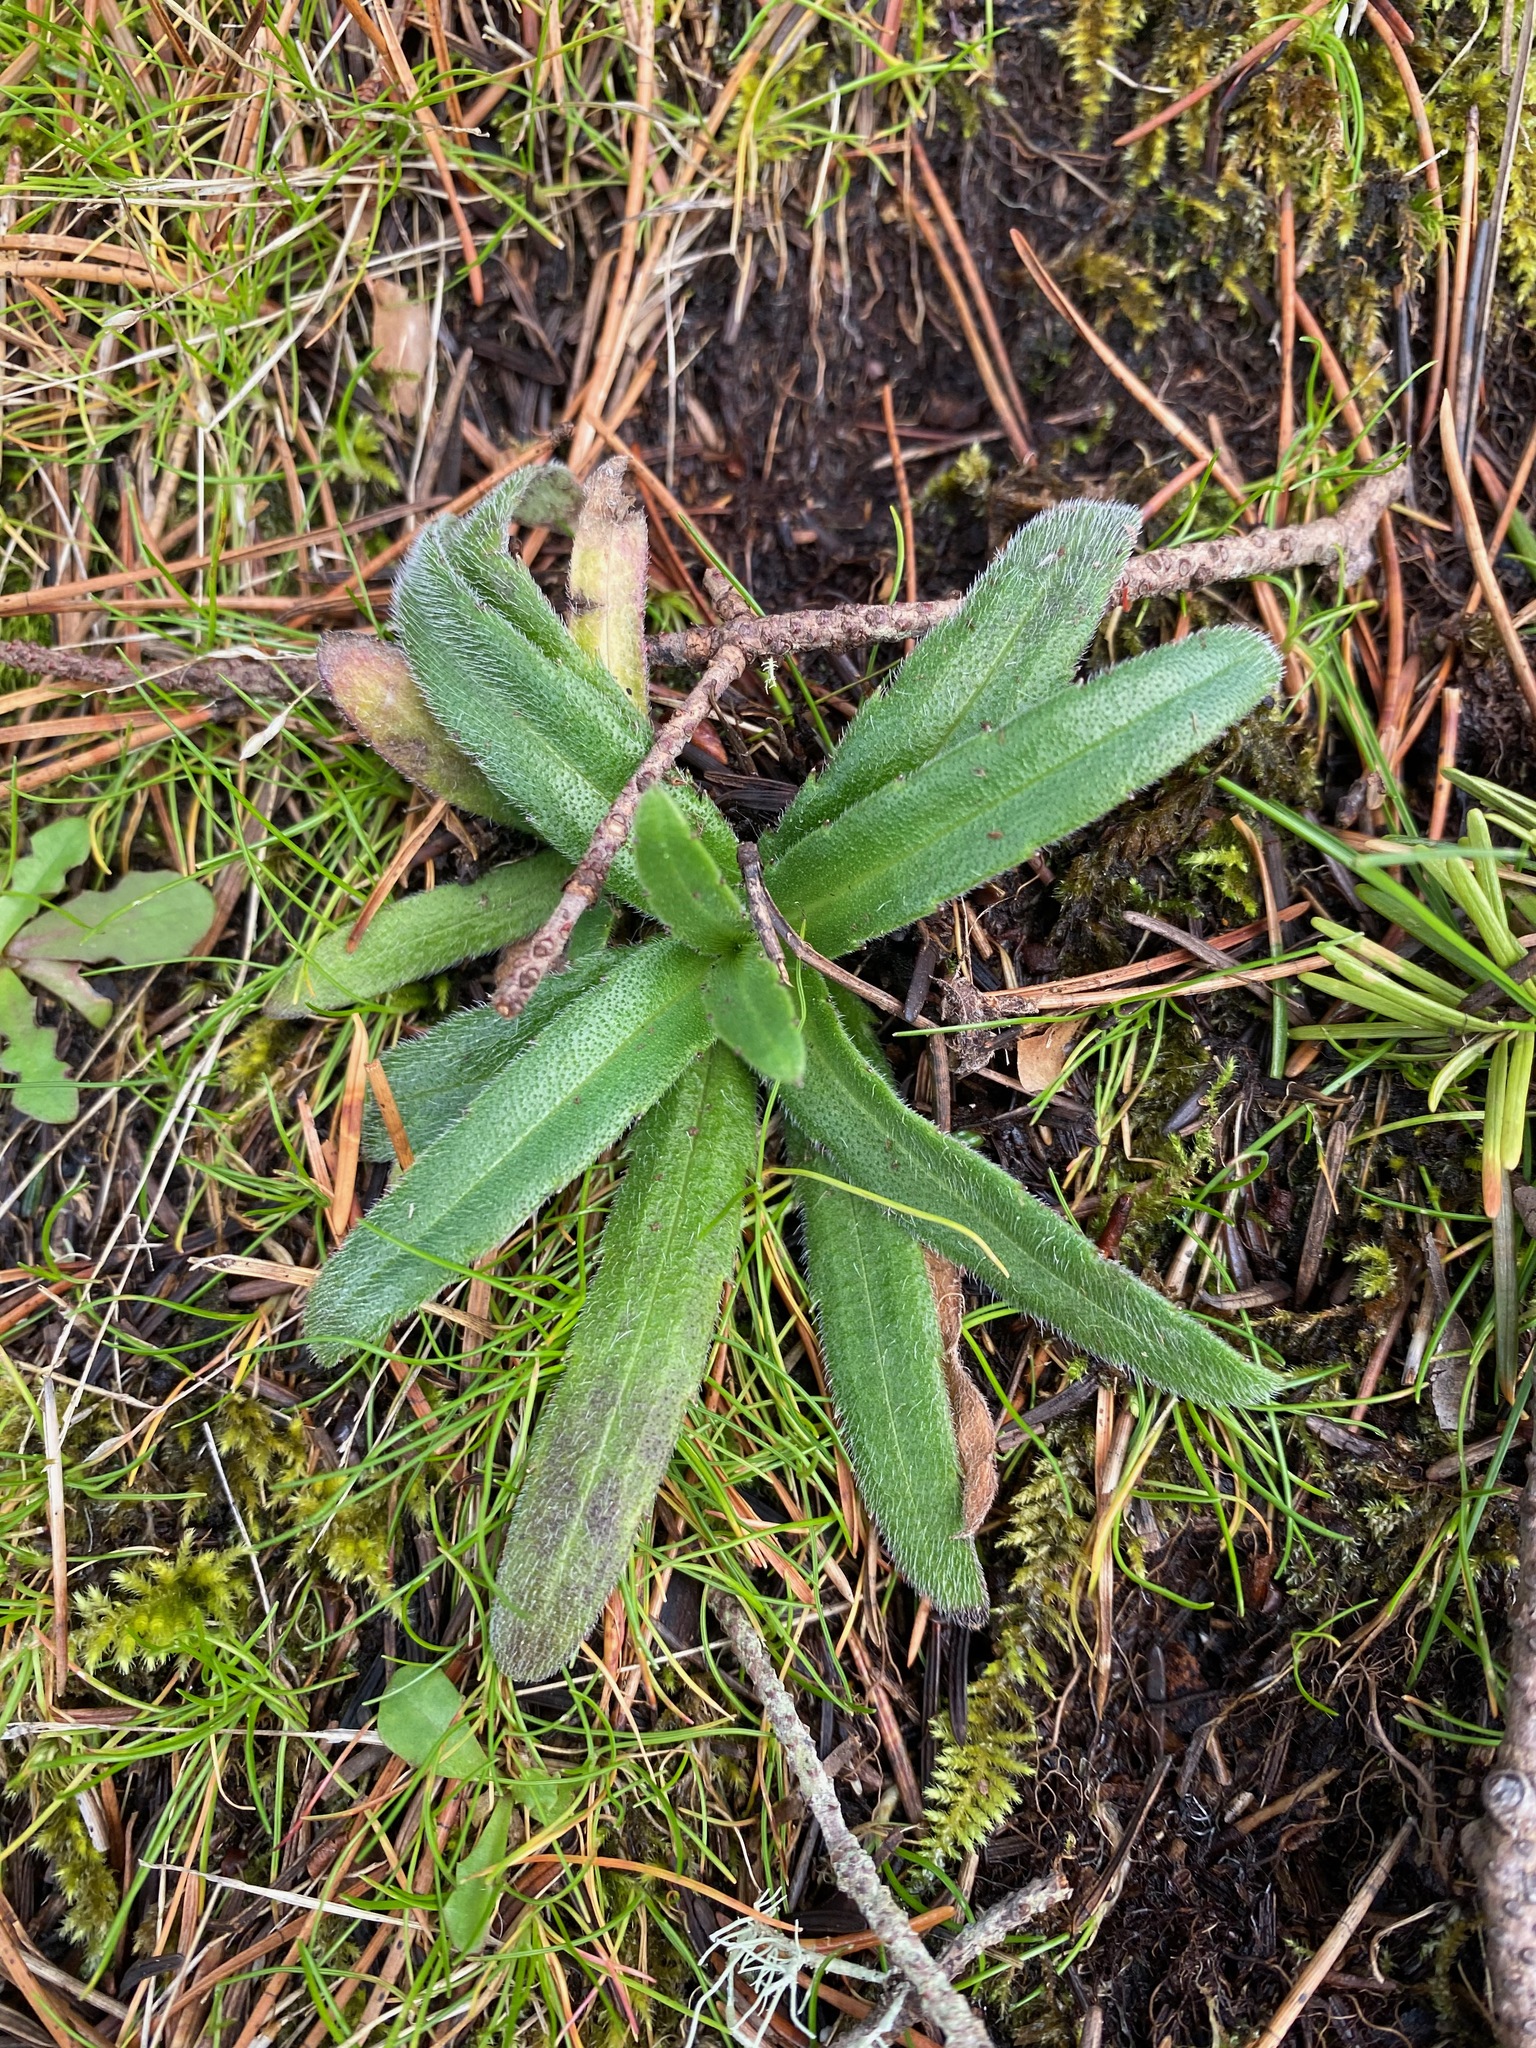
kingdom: Plantae
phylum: Tracheophyta
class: Magnoliopsida
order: Asterales
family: Asteraceae
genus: Anisocarpus
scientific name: Anisocarpus madioides
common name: Woodland madia
